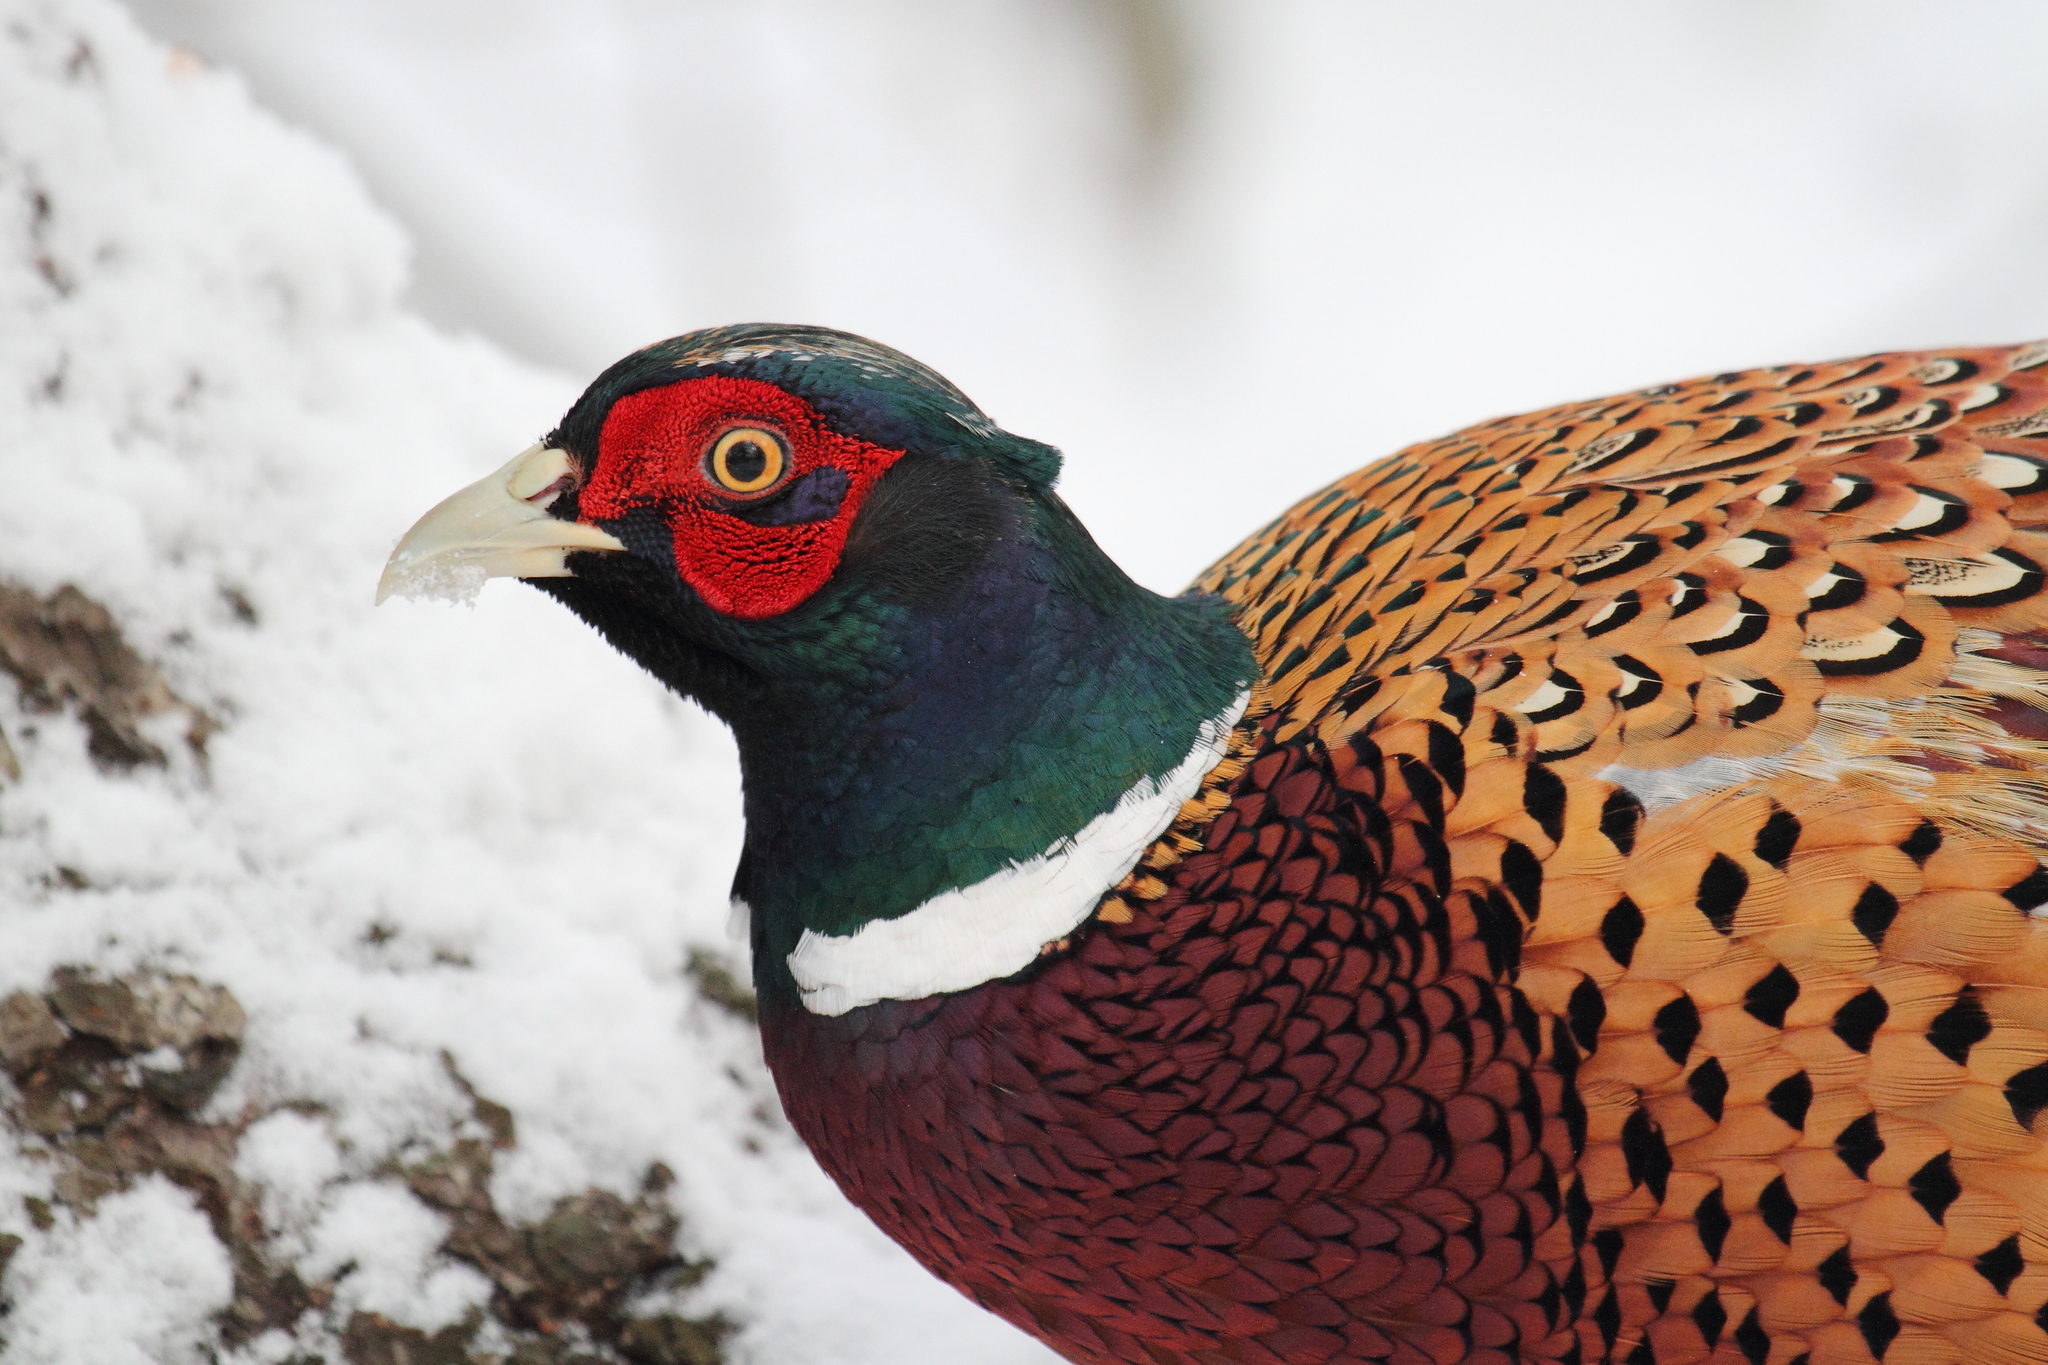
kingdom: Animalia
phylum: Chordata
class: Aves
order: Galliformes
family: Phasianidae
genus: Phasianus
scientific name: Phasianus colchicus
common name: Common pheasant
